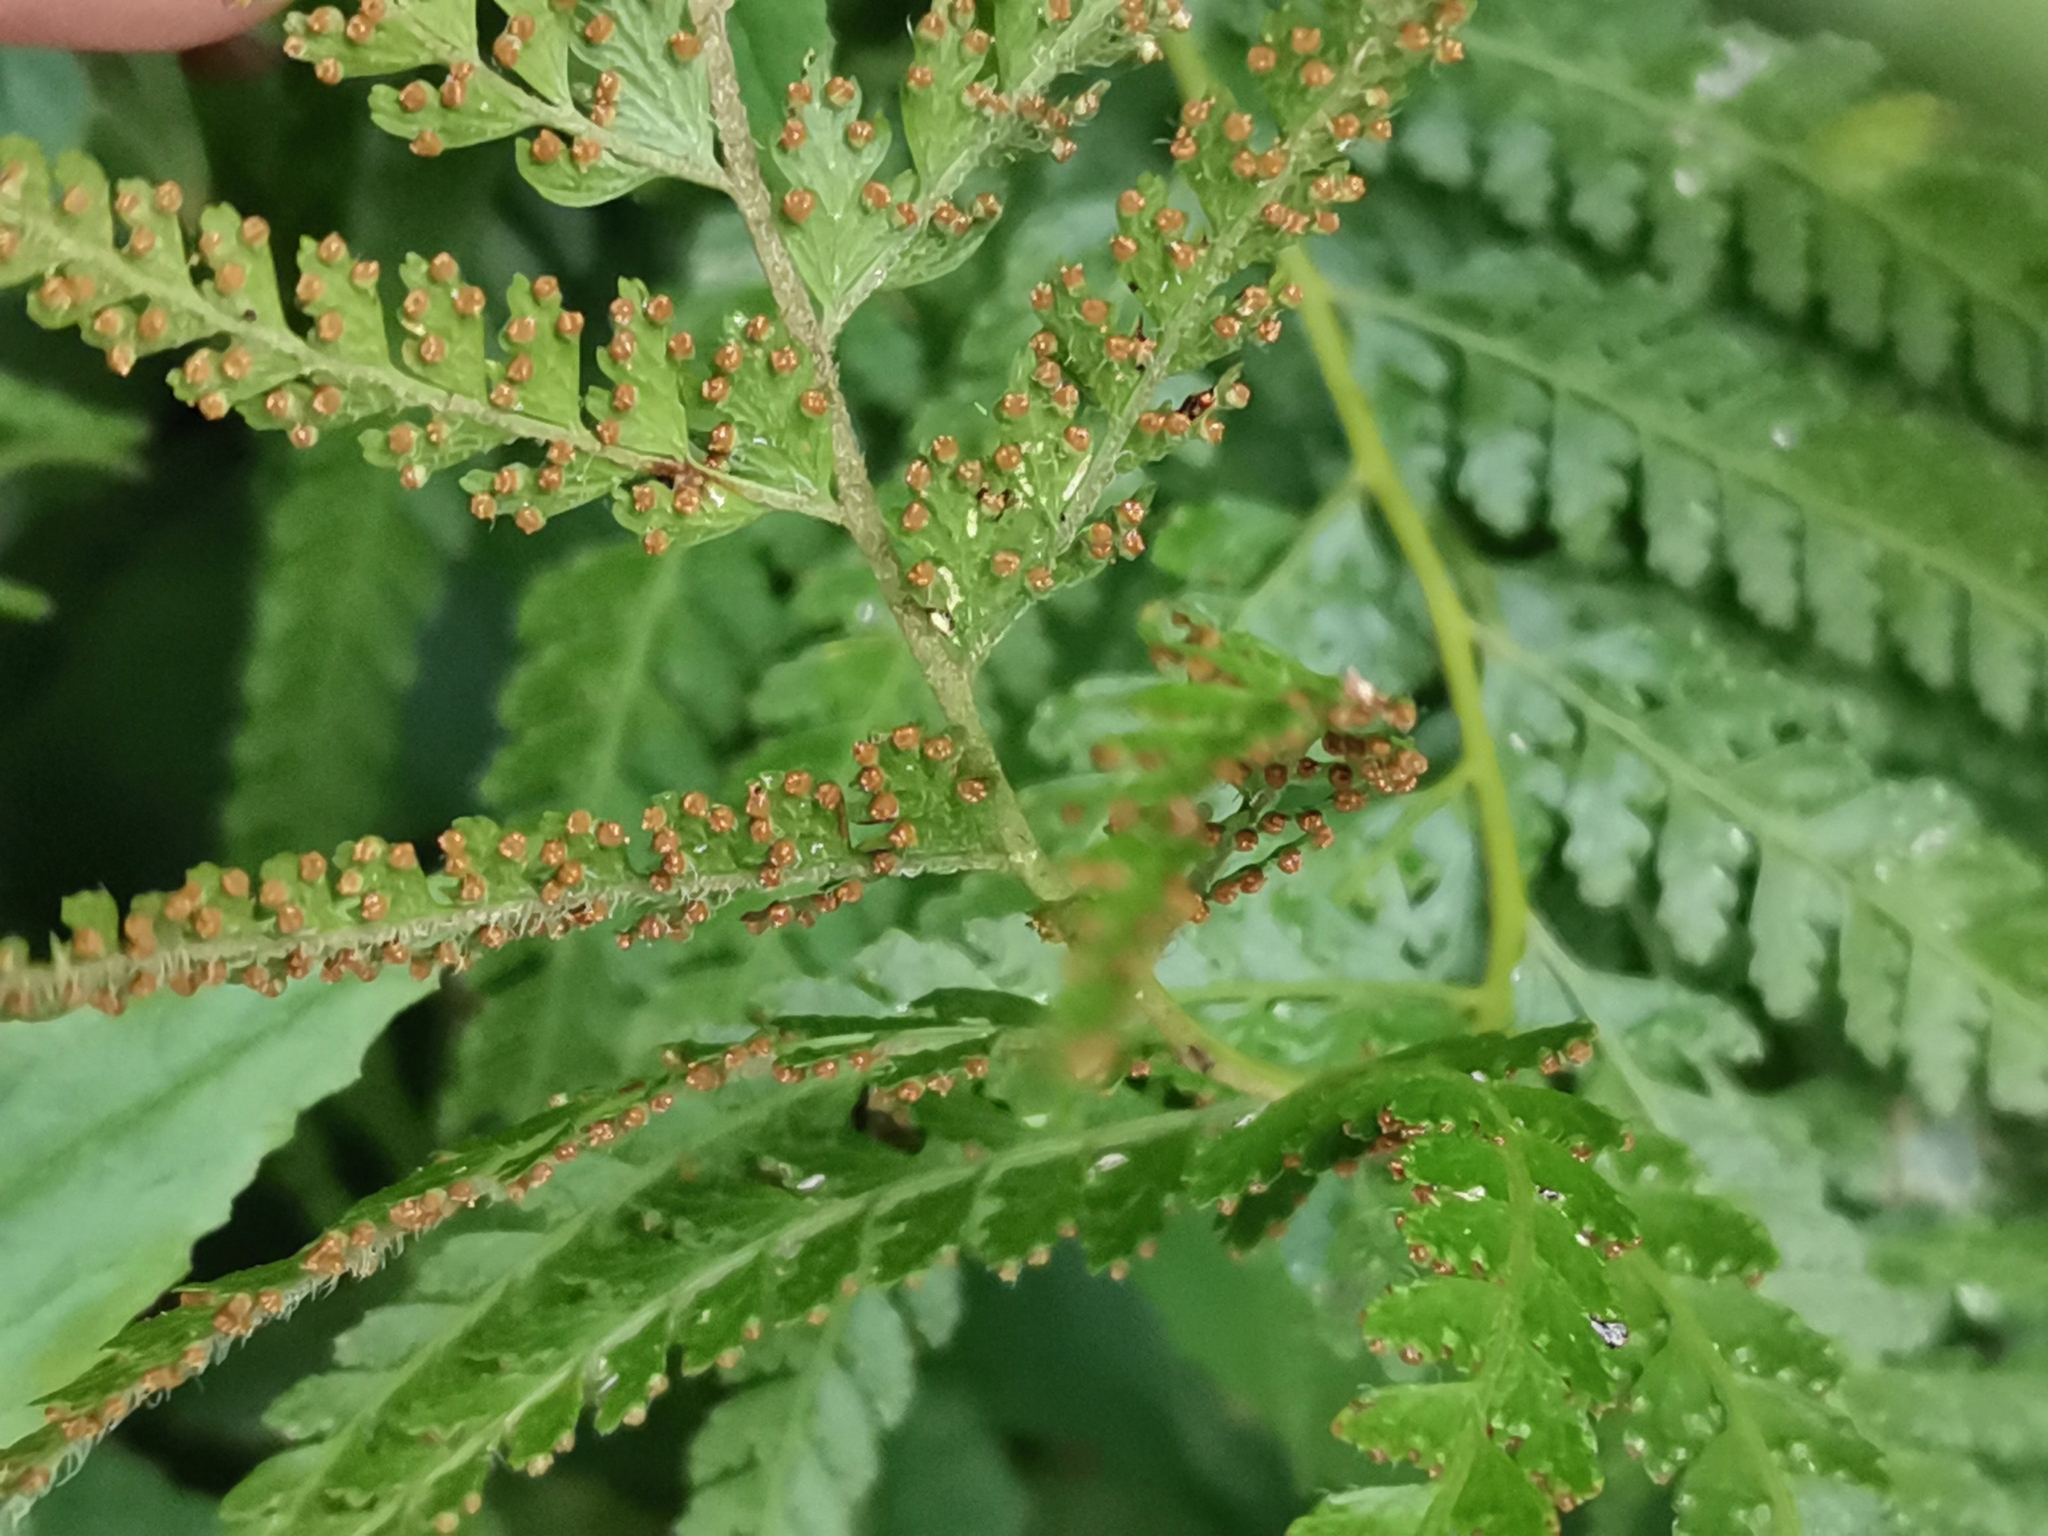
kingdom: Plantae
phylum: Tracheophyta
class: Polypodiopsida
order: Polypodiales
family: Dennstaedtiaceae
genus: Microlepia
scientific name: Microlepia strigosa
